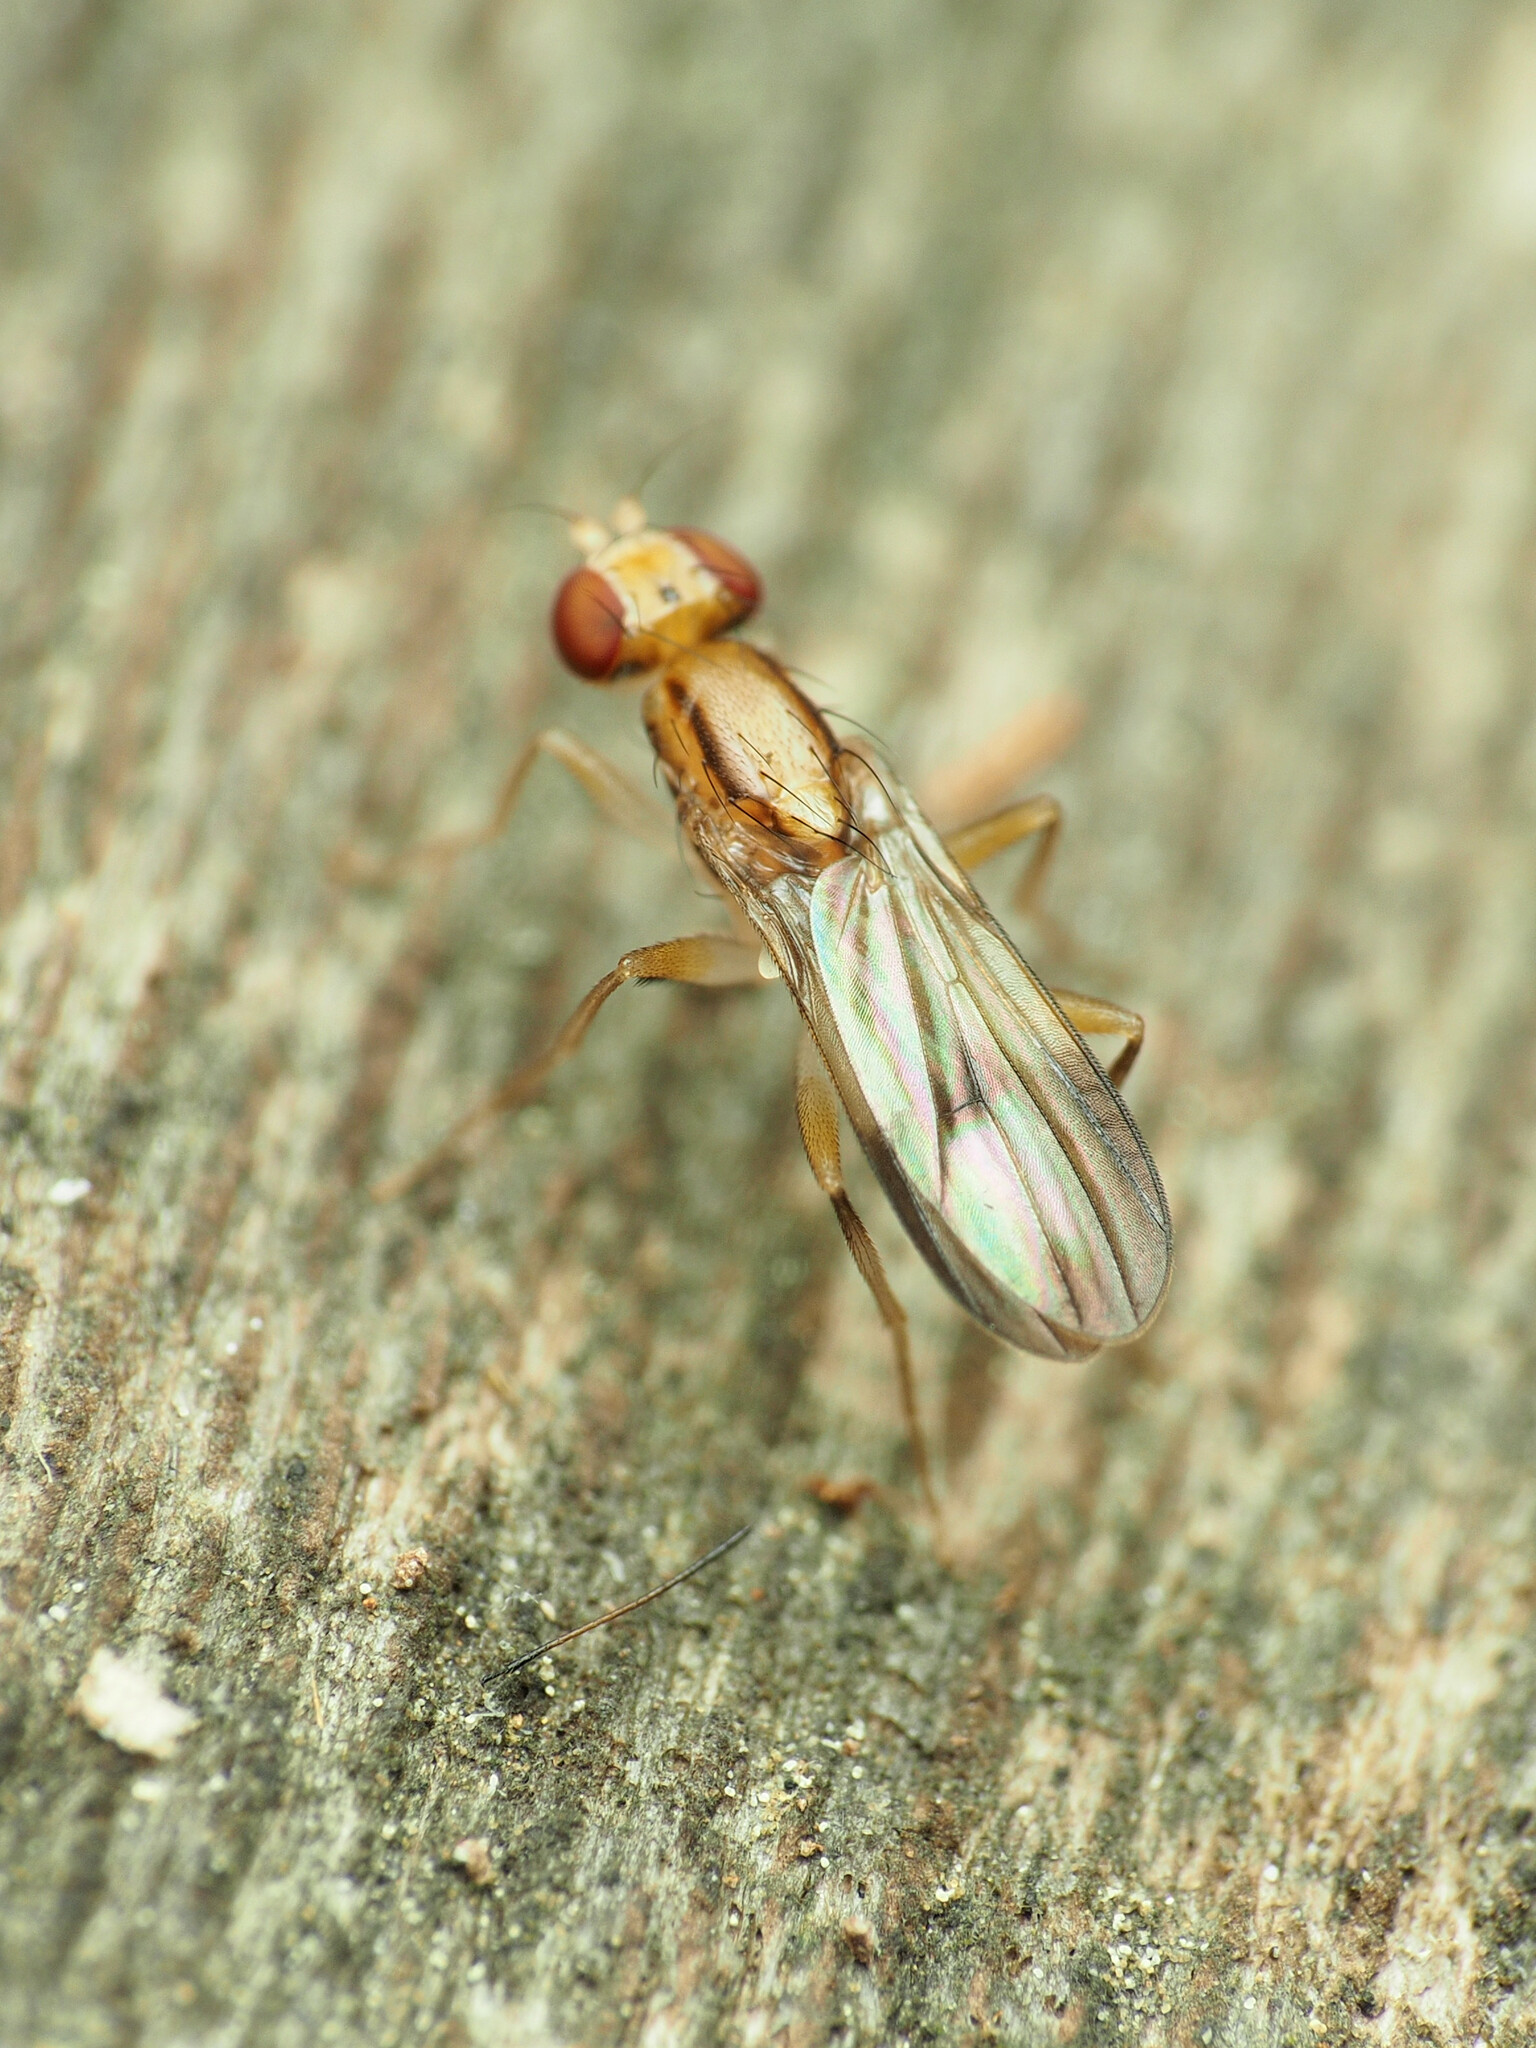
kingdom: Animalia
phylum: Arthropoda
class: Insecta
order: Diptera
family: Clusiidae
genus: Clusia
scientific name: Clusia czernyi
